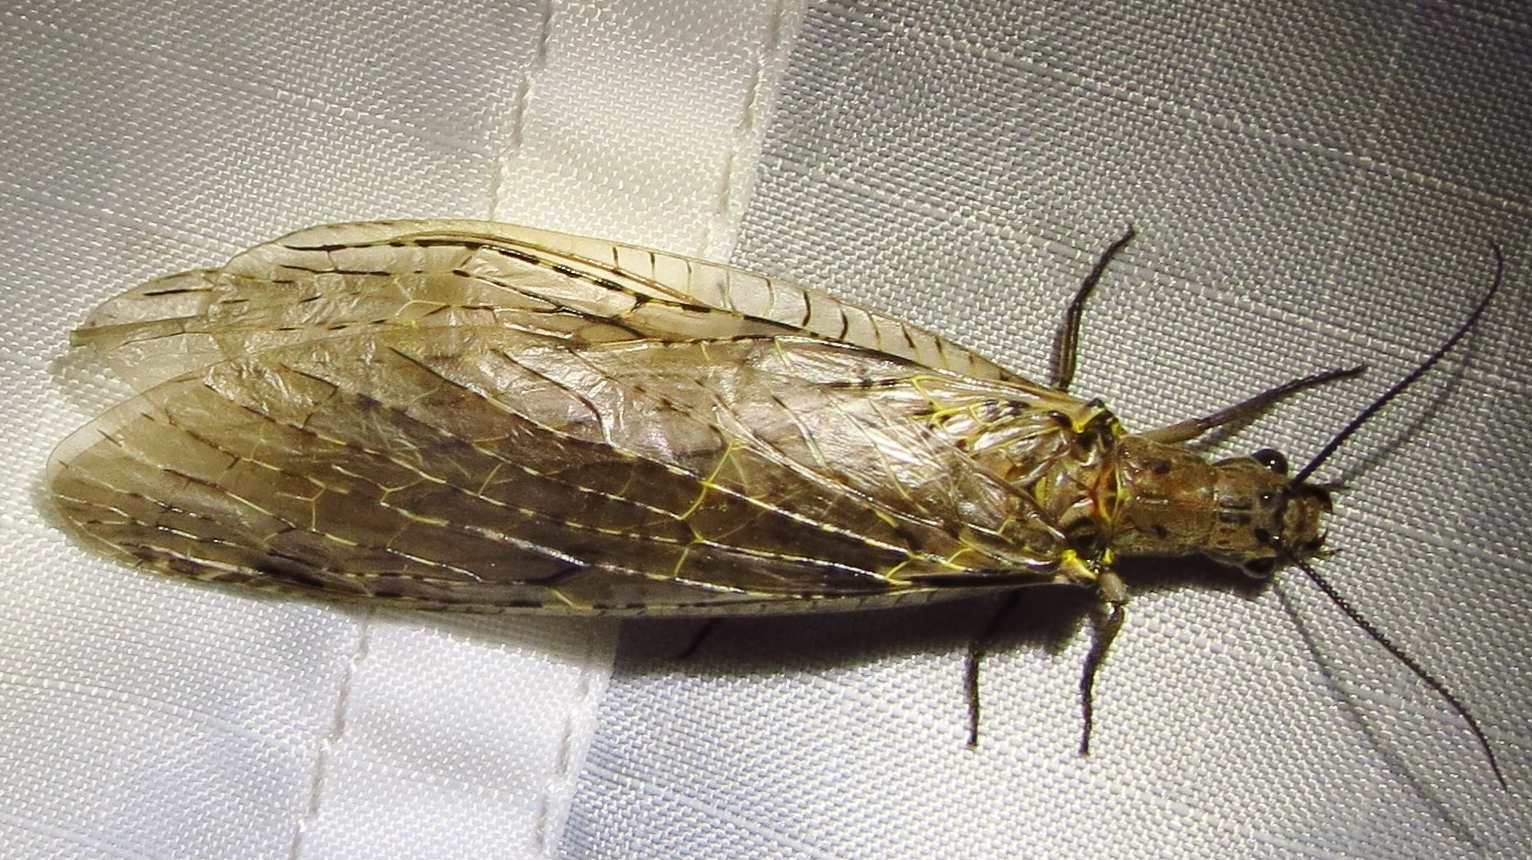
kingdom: Animalia
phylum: Arthropoda
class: Insecta
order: Megaloptera
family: Corydalidae
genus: Chauliodes
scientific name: Chauliodes rastricornis
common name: Spring fishfly
